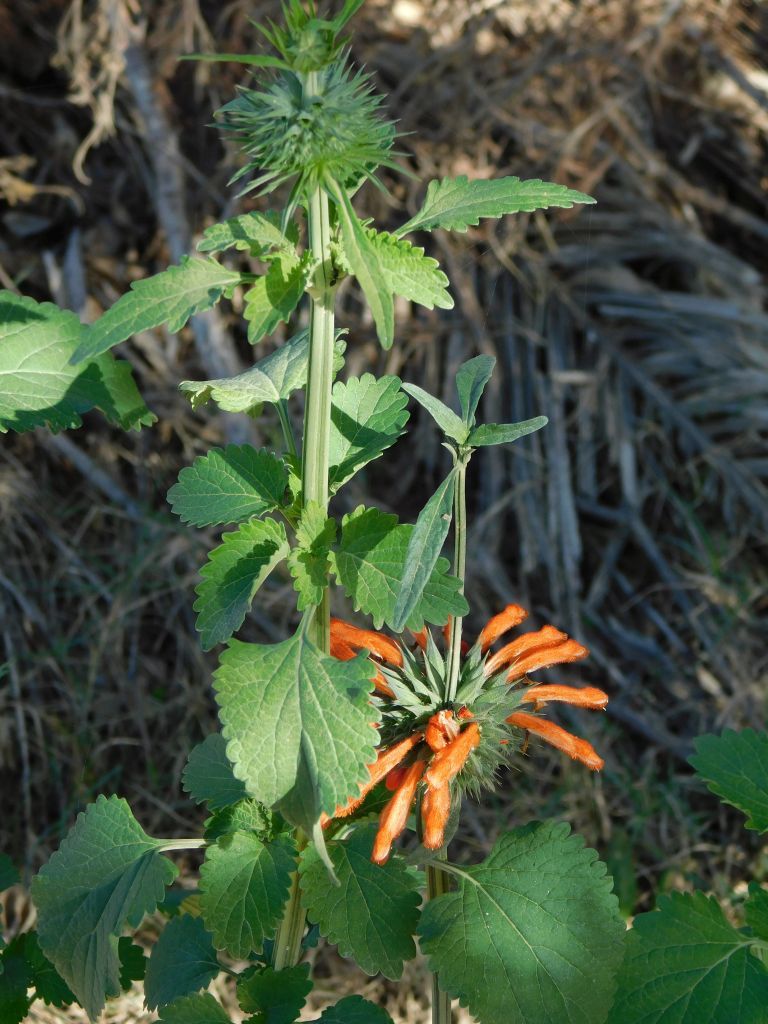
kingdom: Plantae
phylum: Tracheophyta
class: Magnoliopsida
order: Lamiales
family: Lamiaceae
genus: Leonotis
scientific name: Leonotis nepetifolia
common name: Christmas candlestick
